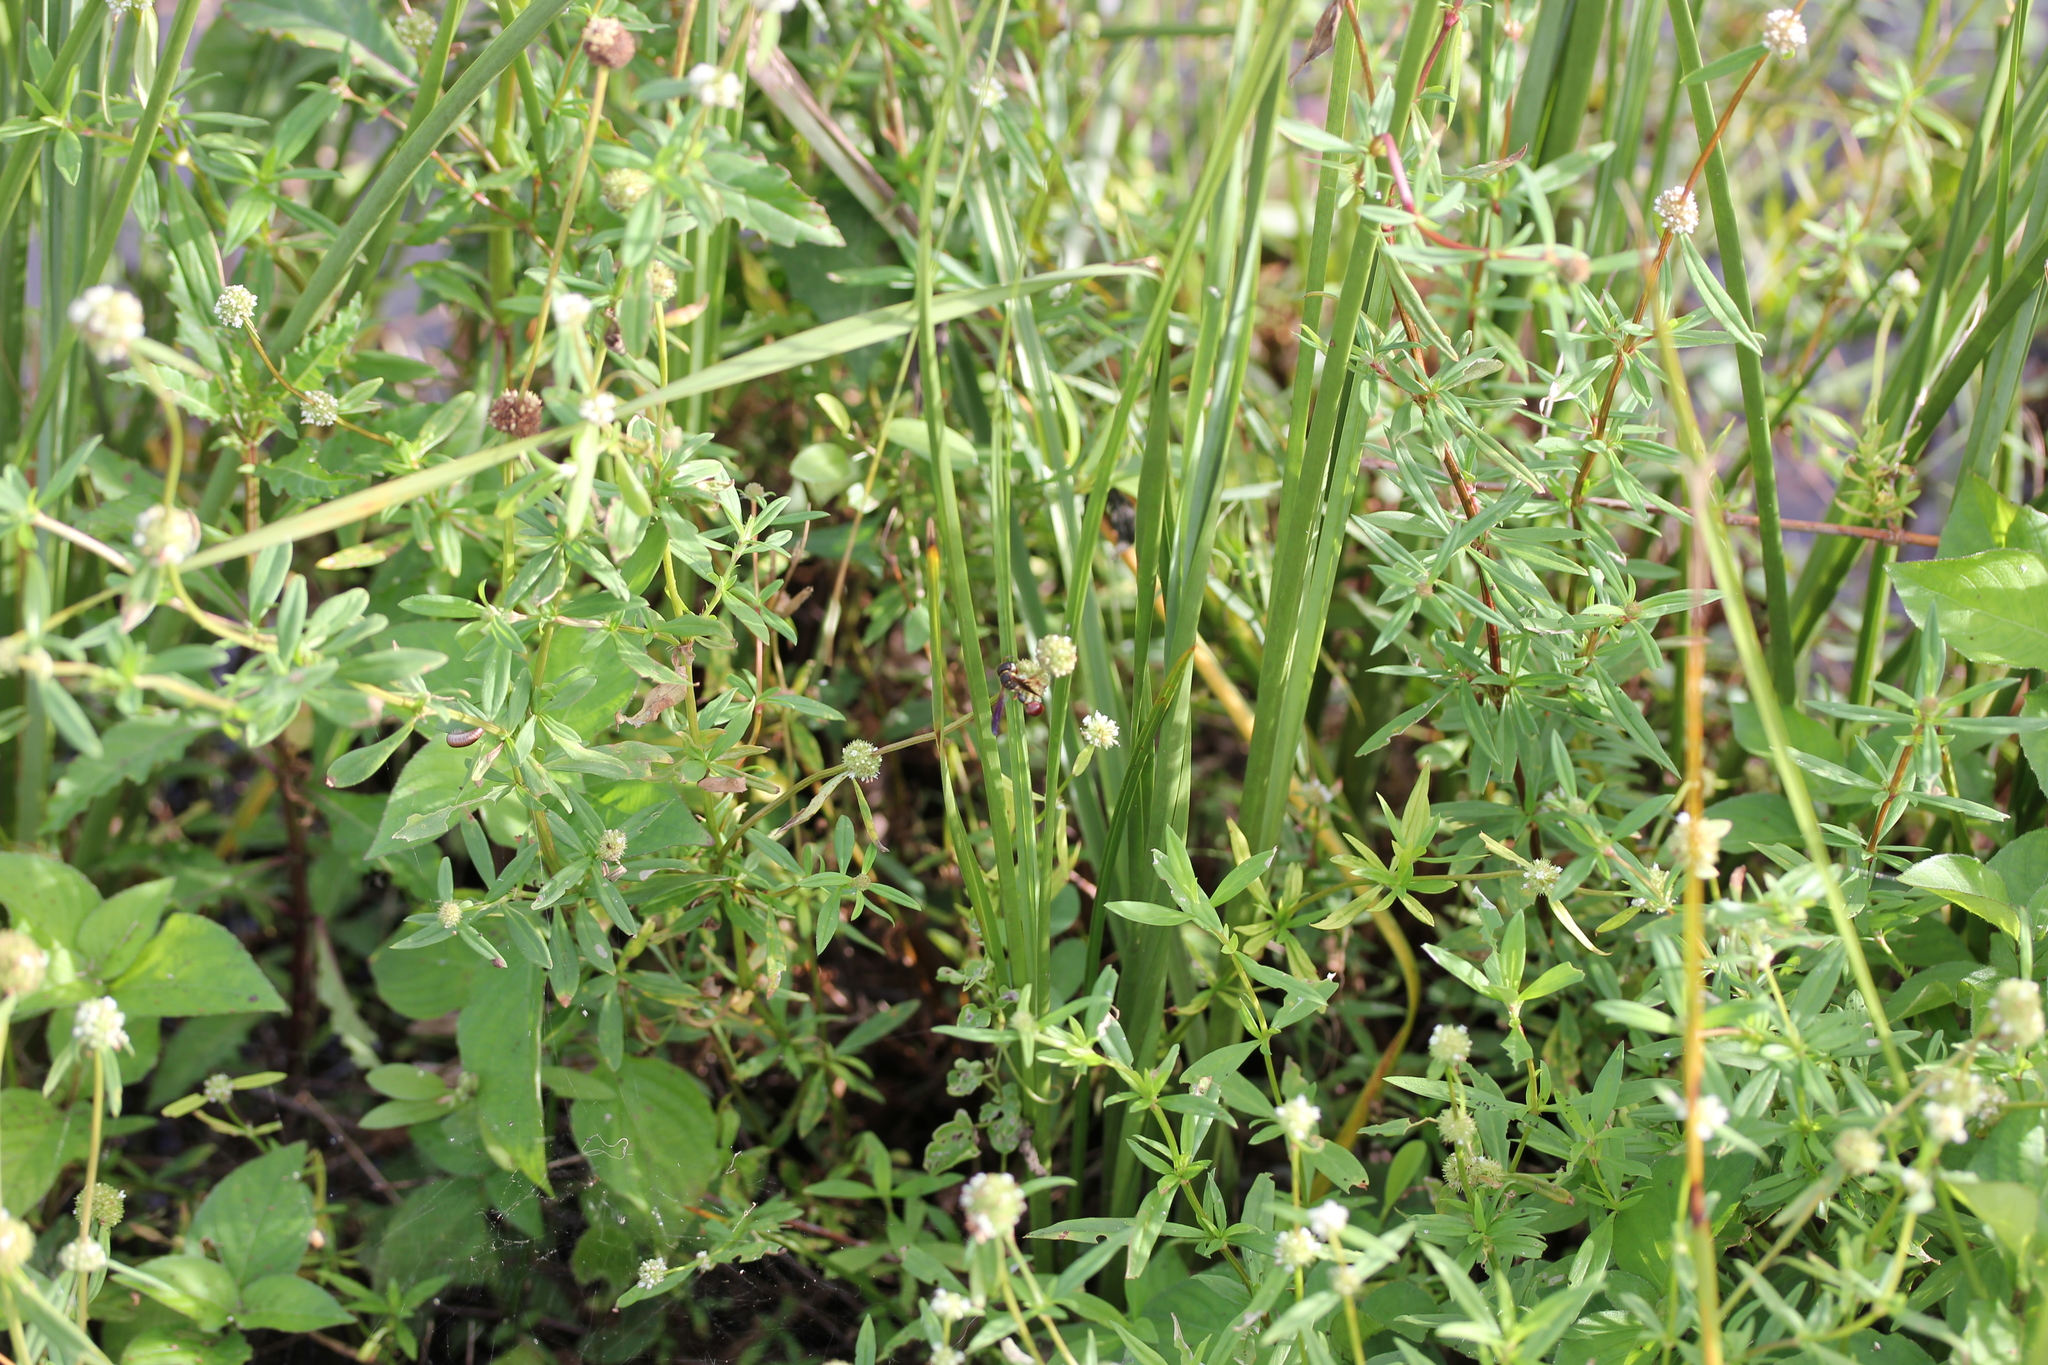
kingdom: Plantae
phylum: Tracheophyta
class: Magnoliopsida
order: Gentianales
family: Rubiaceae
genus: Spermacoce
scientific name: Spermacoce verticillata
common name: Shrubby false buttonweed
